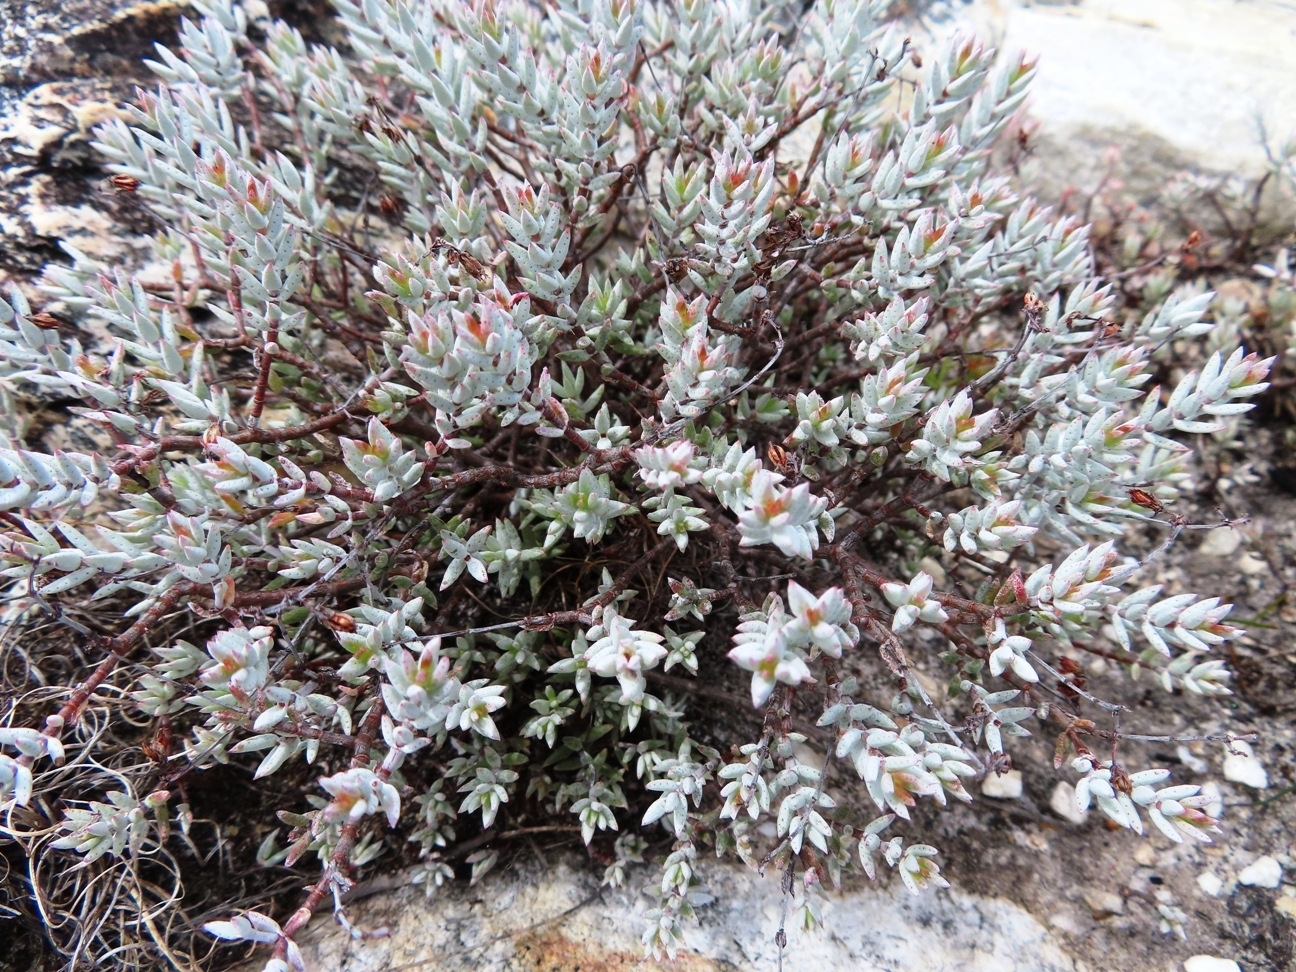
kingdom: Plantae
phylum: Tracheophyta
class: Magnoliopsida
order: Saxifragales
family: Crassulaceae
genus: Crassula
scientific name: Crassula biplanata
